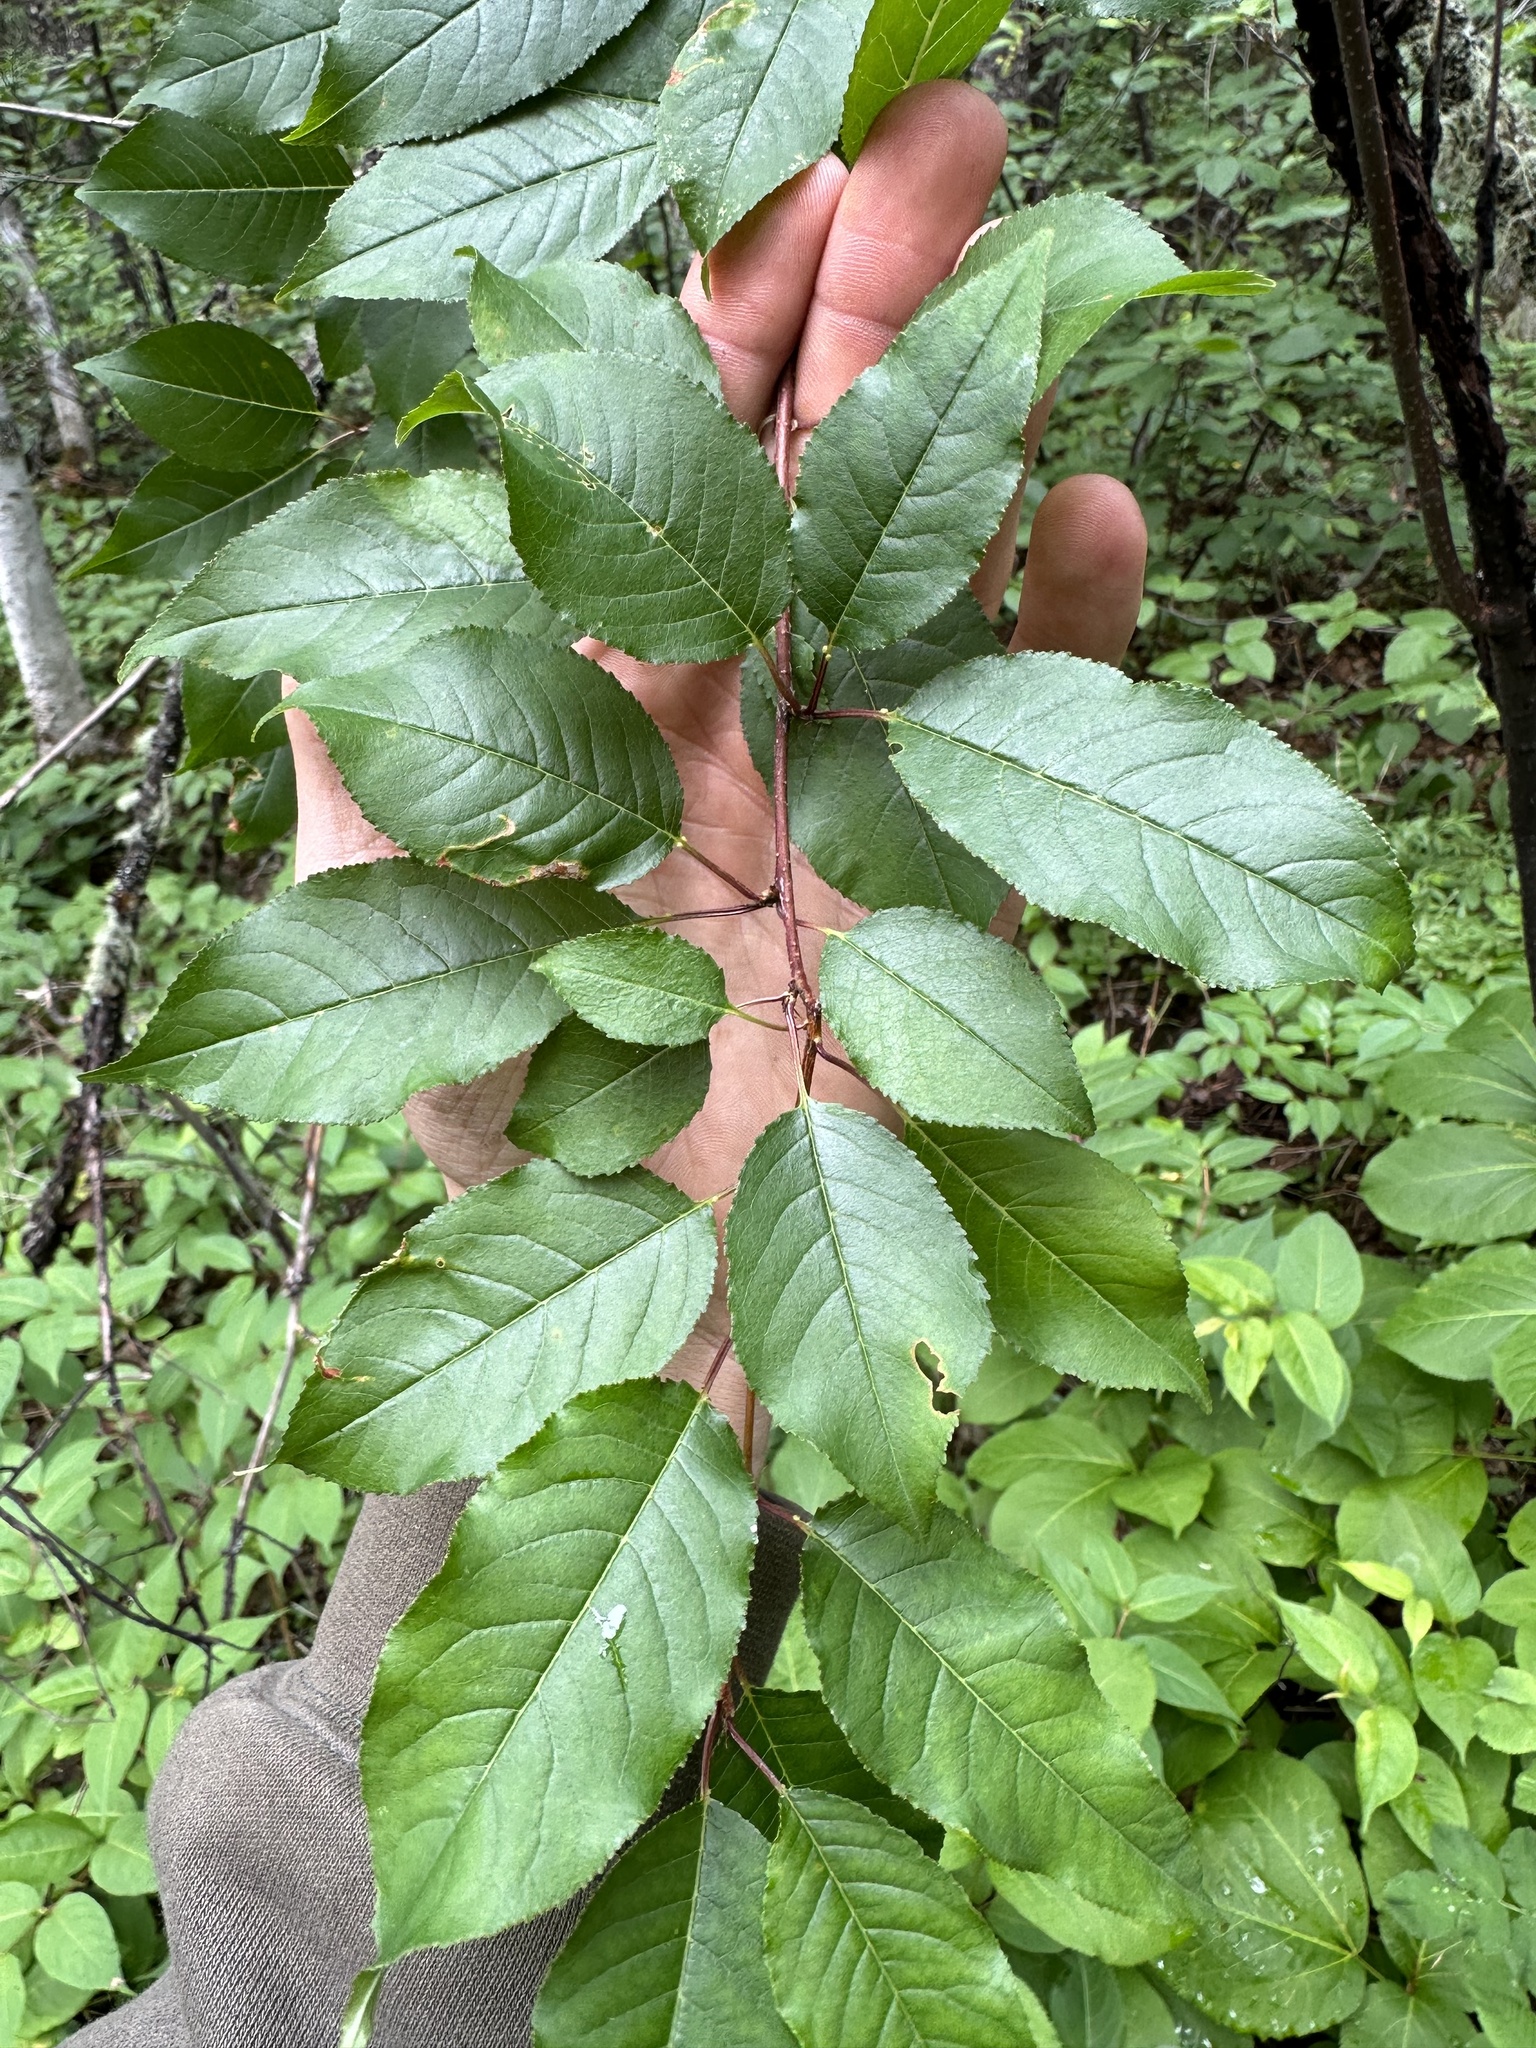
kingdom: Plantae
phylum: Tracheophyta
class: Magnoliopsida
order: Rosales
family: Rosaceae
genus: Prunus
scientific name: Prunus pensylvanica
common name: Pin cherry
